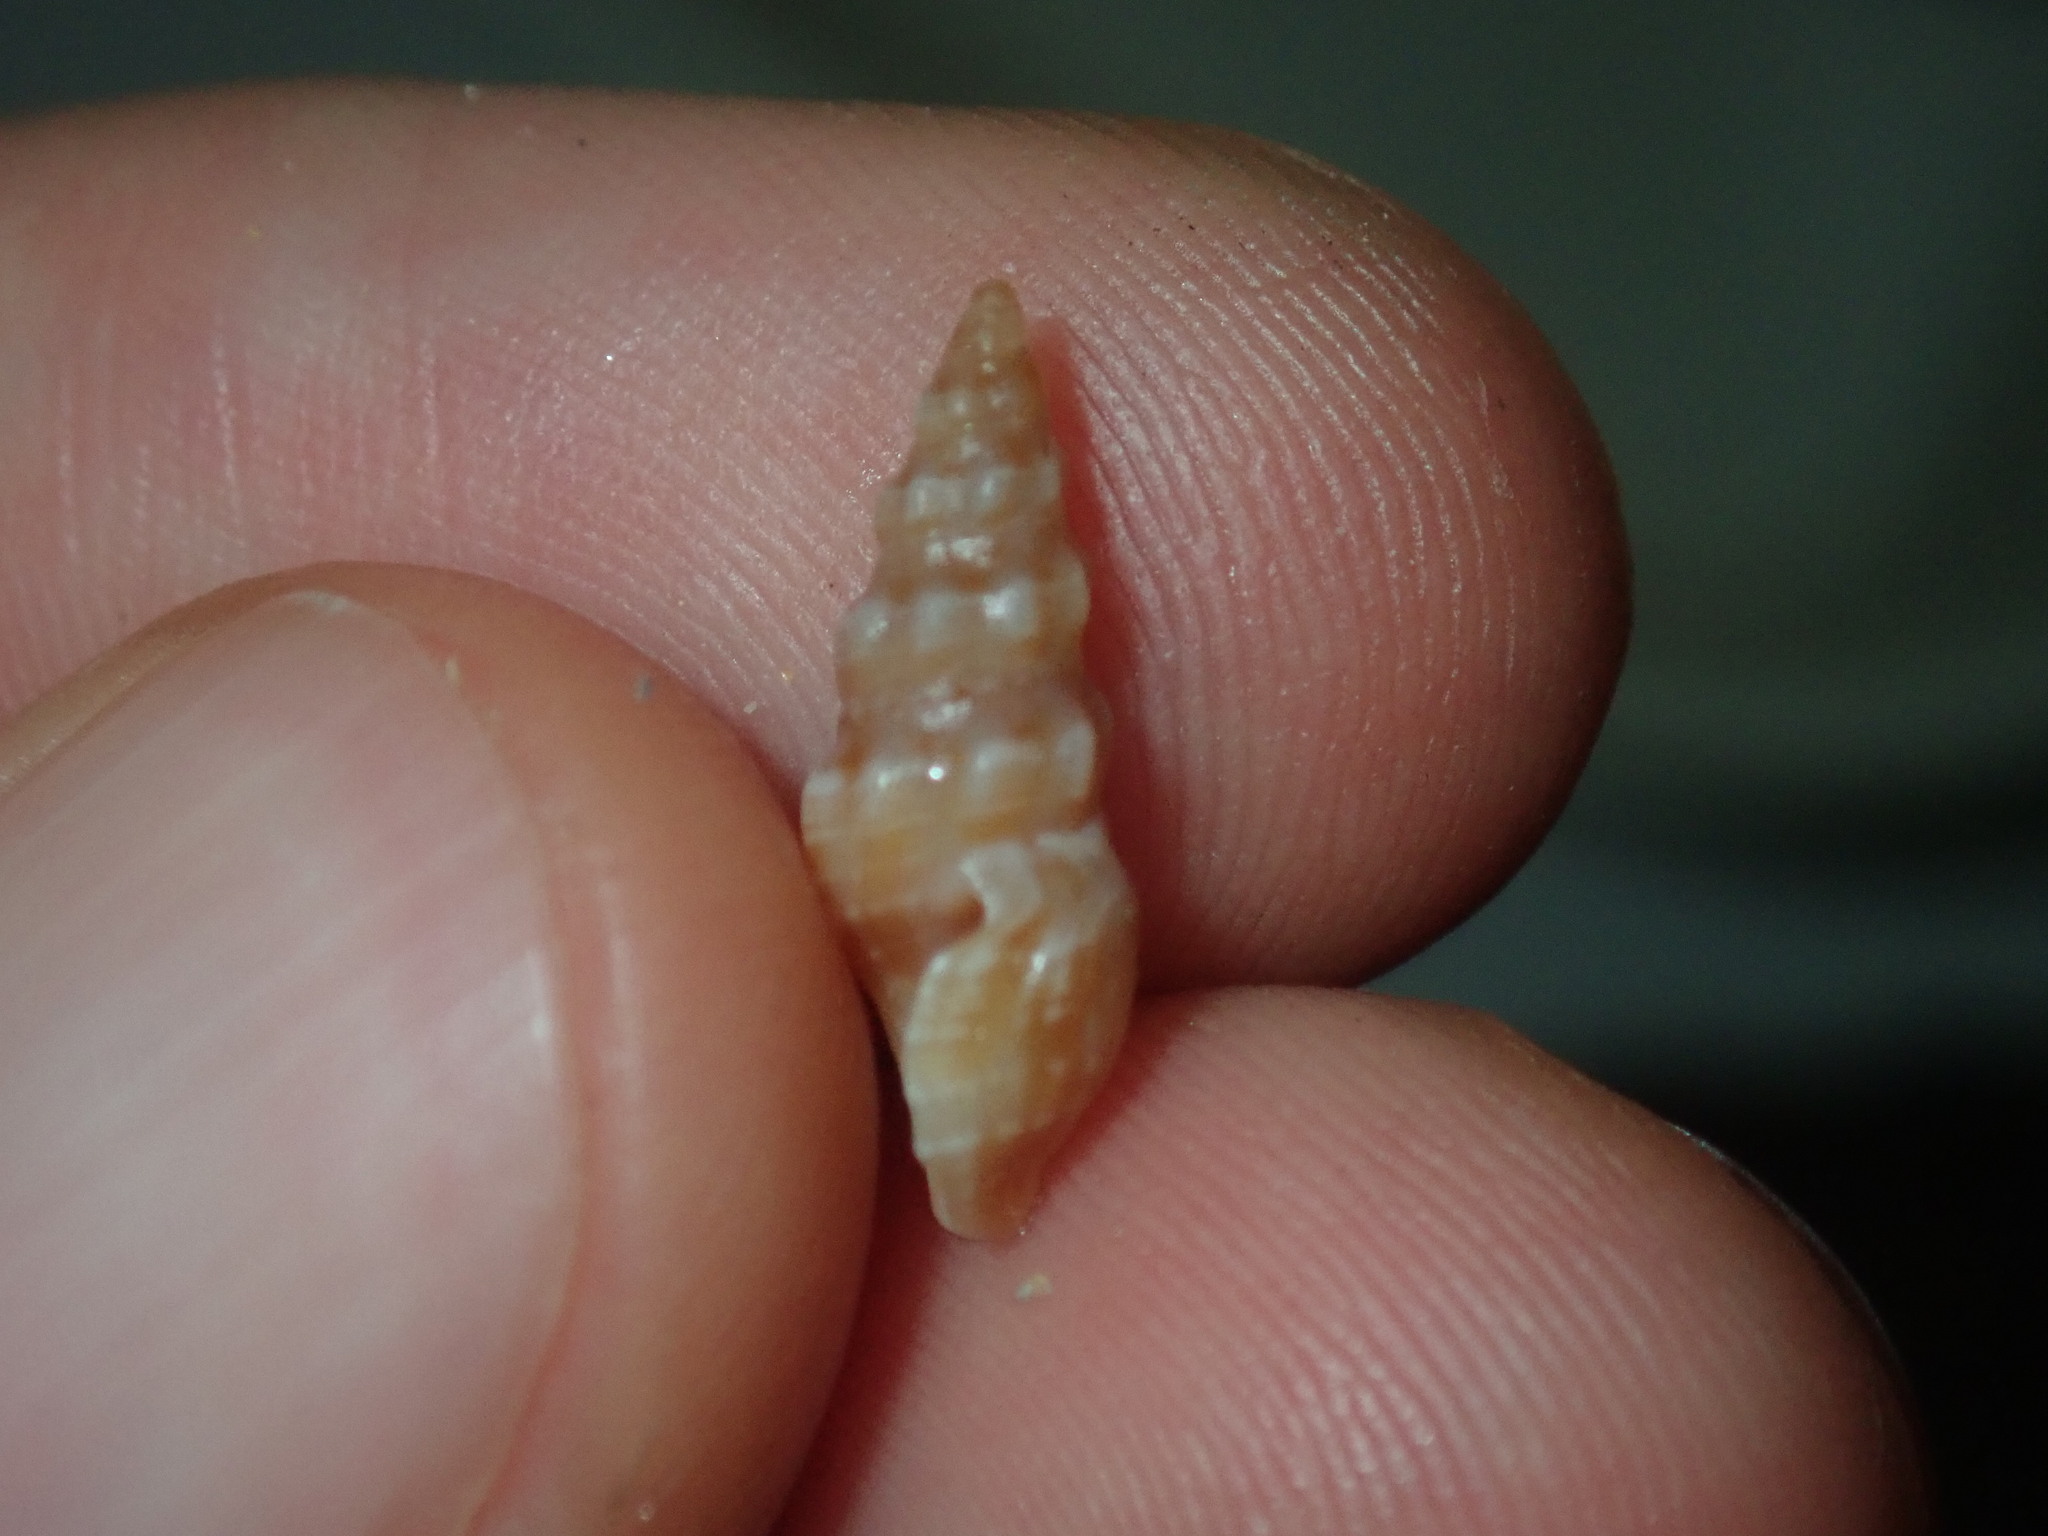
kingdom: Animalia
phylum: Mollusca
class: Gastropoda
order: Neogastropoda
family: Horaiclavidae
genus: Austrodrillia
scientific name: Austrodrillia beraudiana
